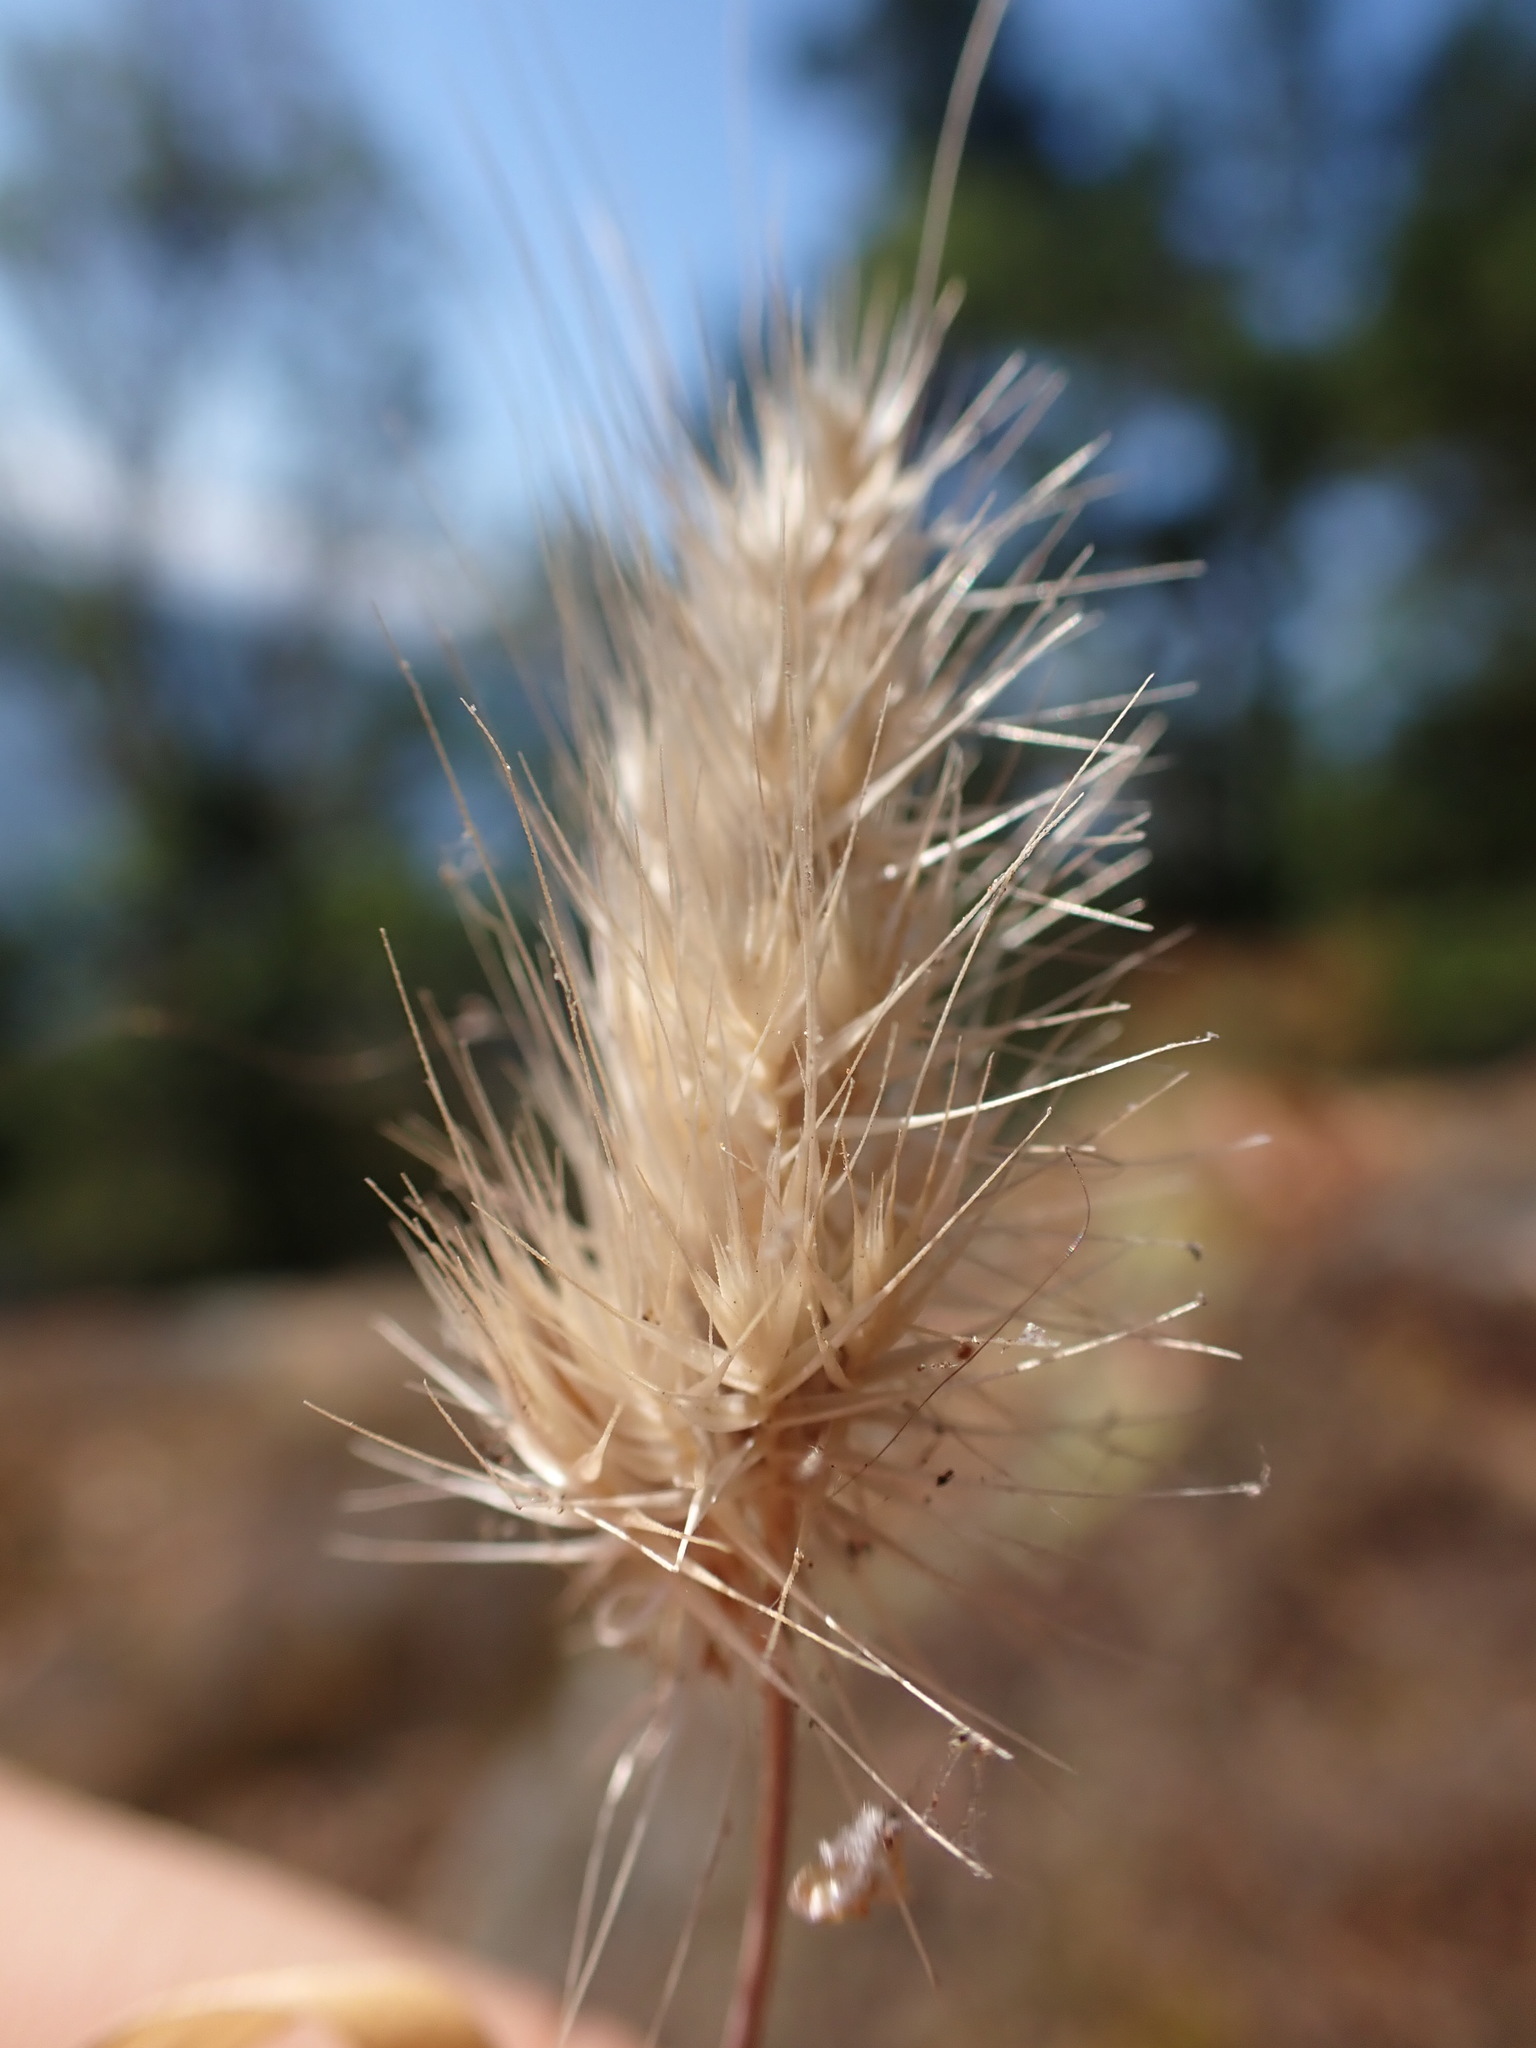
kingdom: Plantae
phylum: Tracheophyta
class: Liliopsida
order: Poales
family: Poaceae
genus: Cynosurus
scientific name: Cynosurus echinatus
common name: Rough dog's-tail
